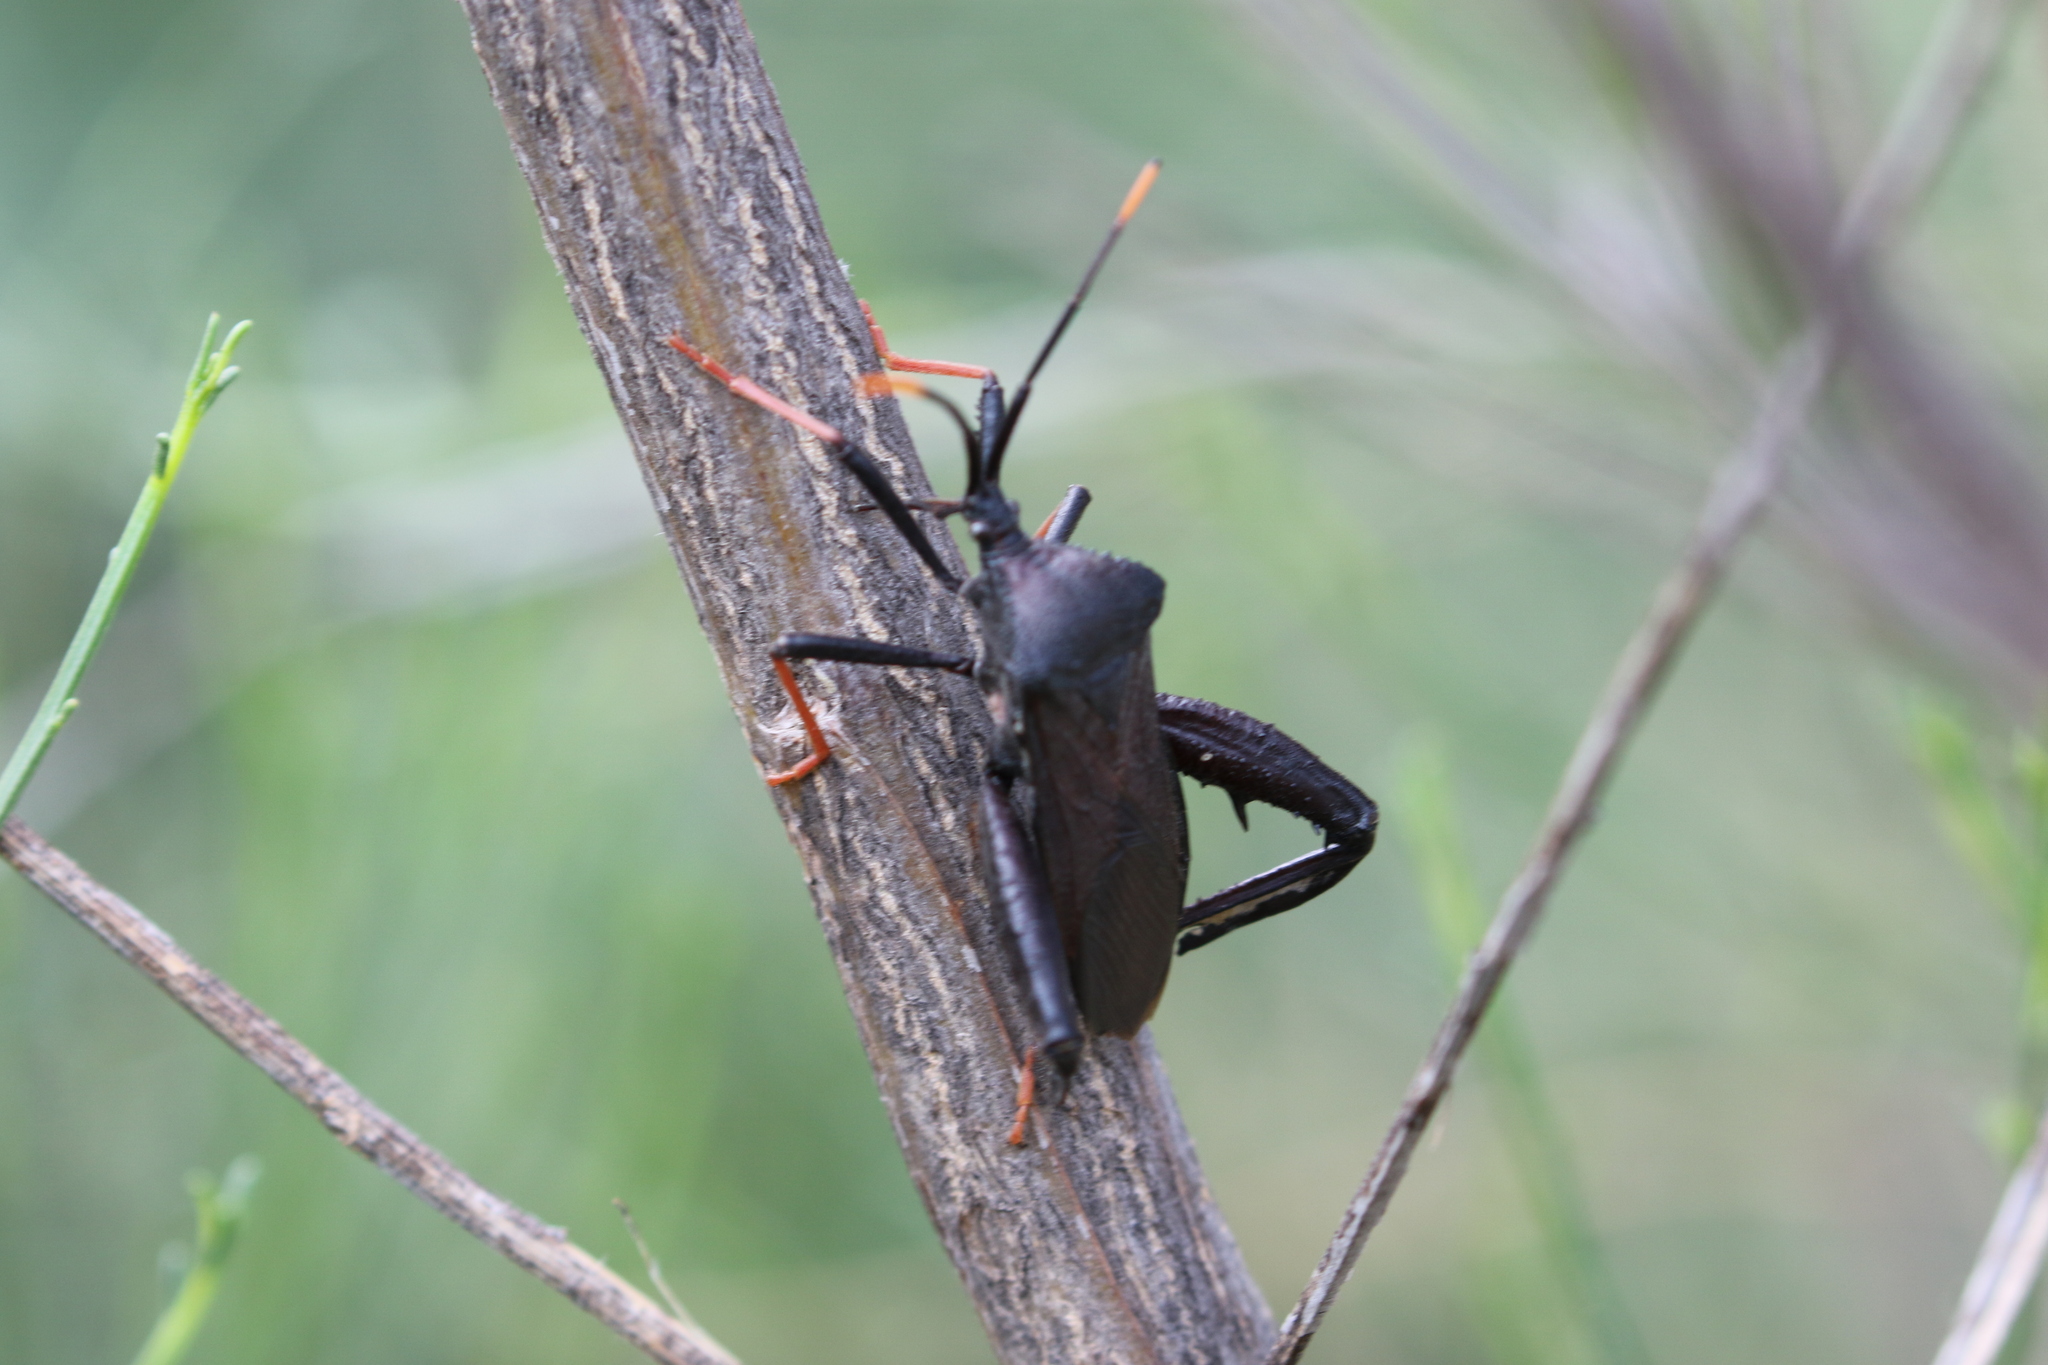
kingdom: Animalia
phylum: Arthropoda
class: Insecta
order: Hemiptera
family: Coreidae
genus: Acanthocephala
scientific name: Acanthocephala thomasi
